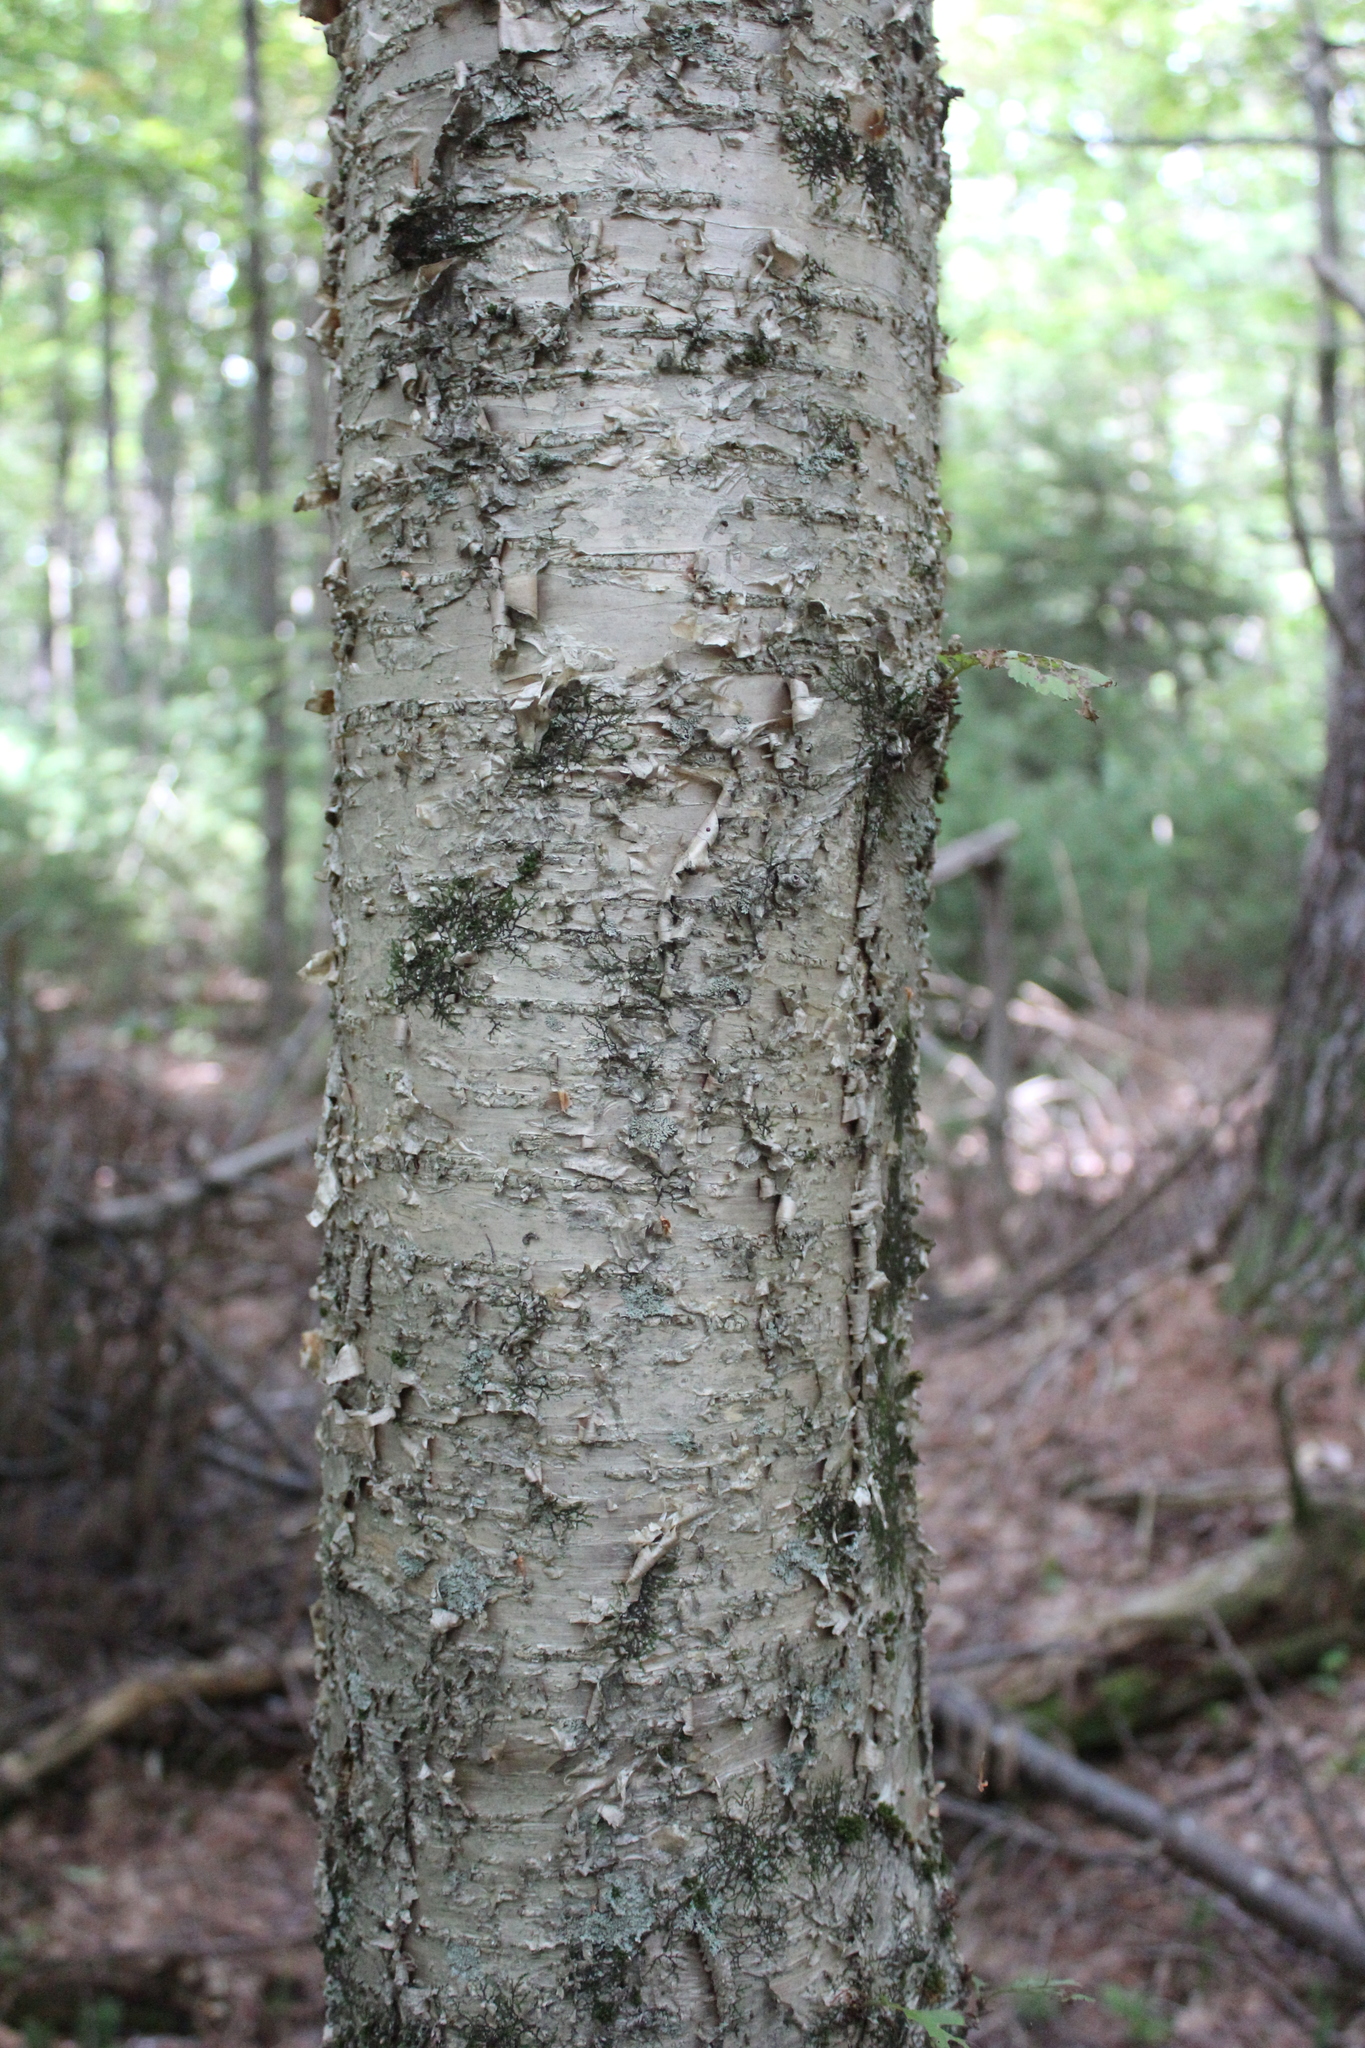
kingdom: Plantae
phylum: Tracheophyta
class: Magnoliopsida
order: Fagales
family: Betulaceae
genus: Betula
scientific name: Betula alleghaniensis
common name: Yellow birch
